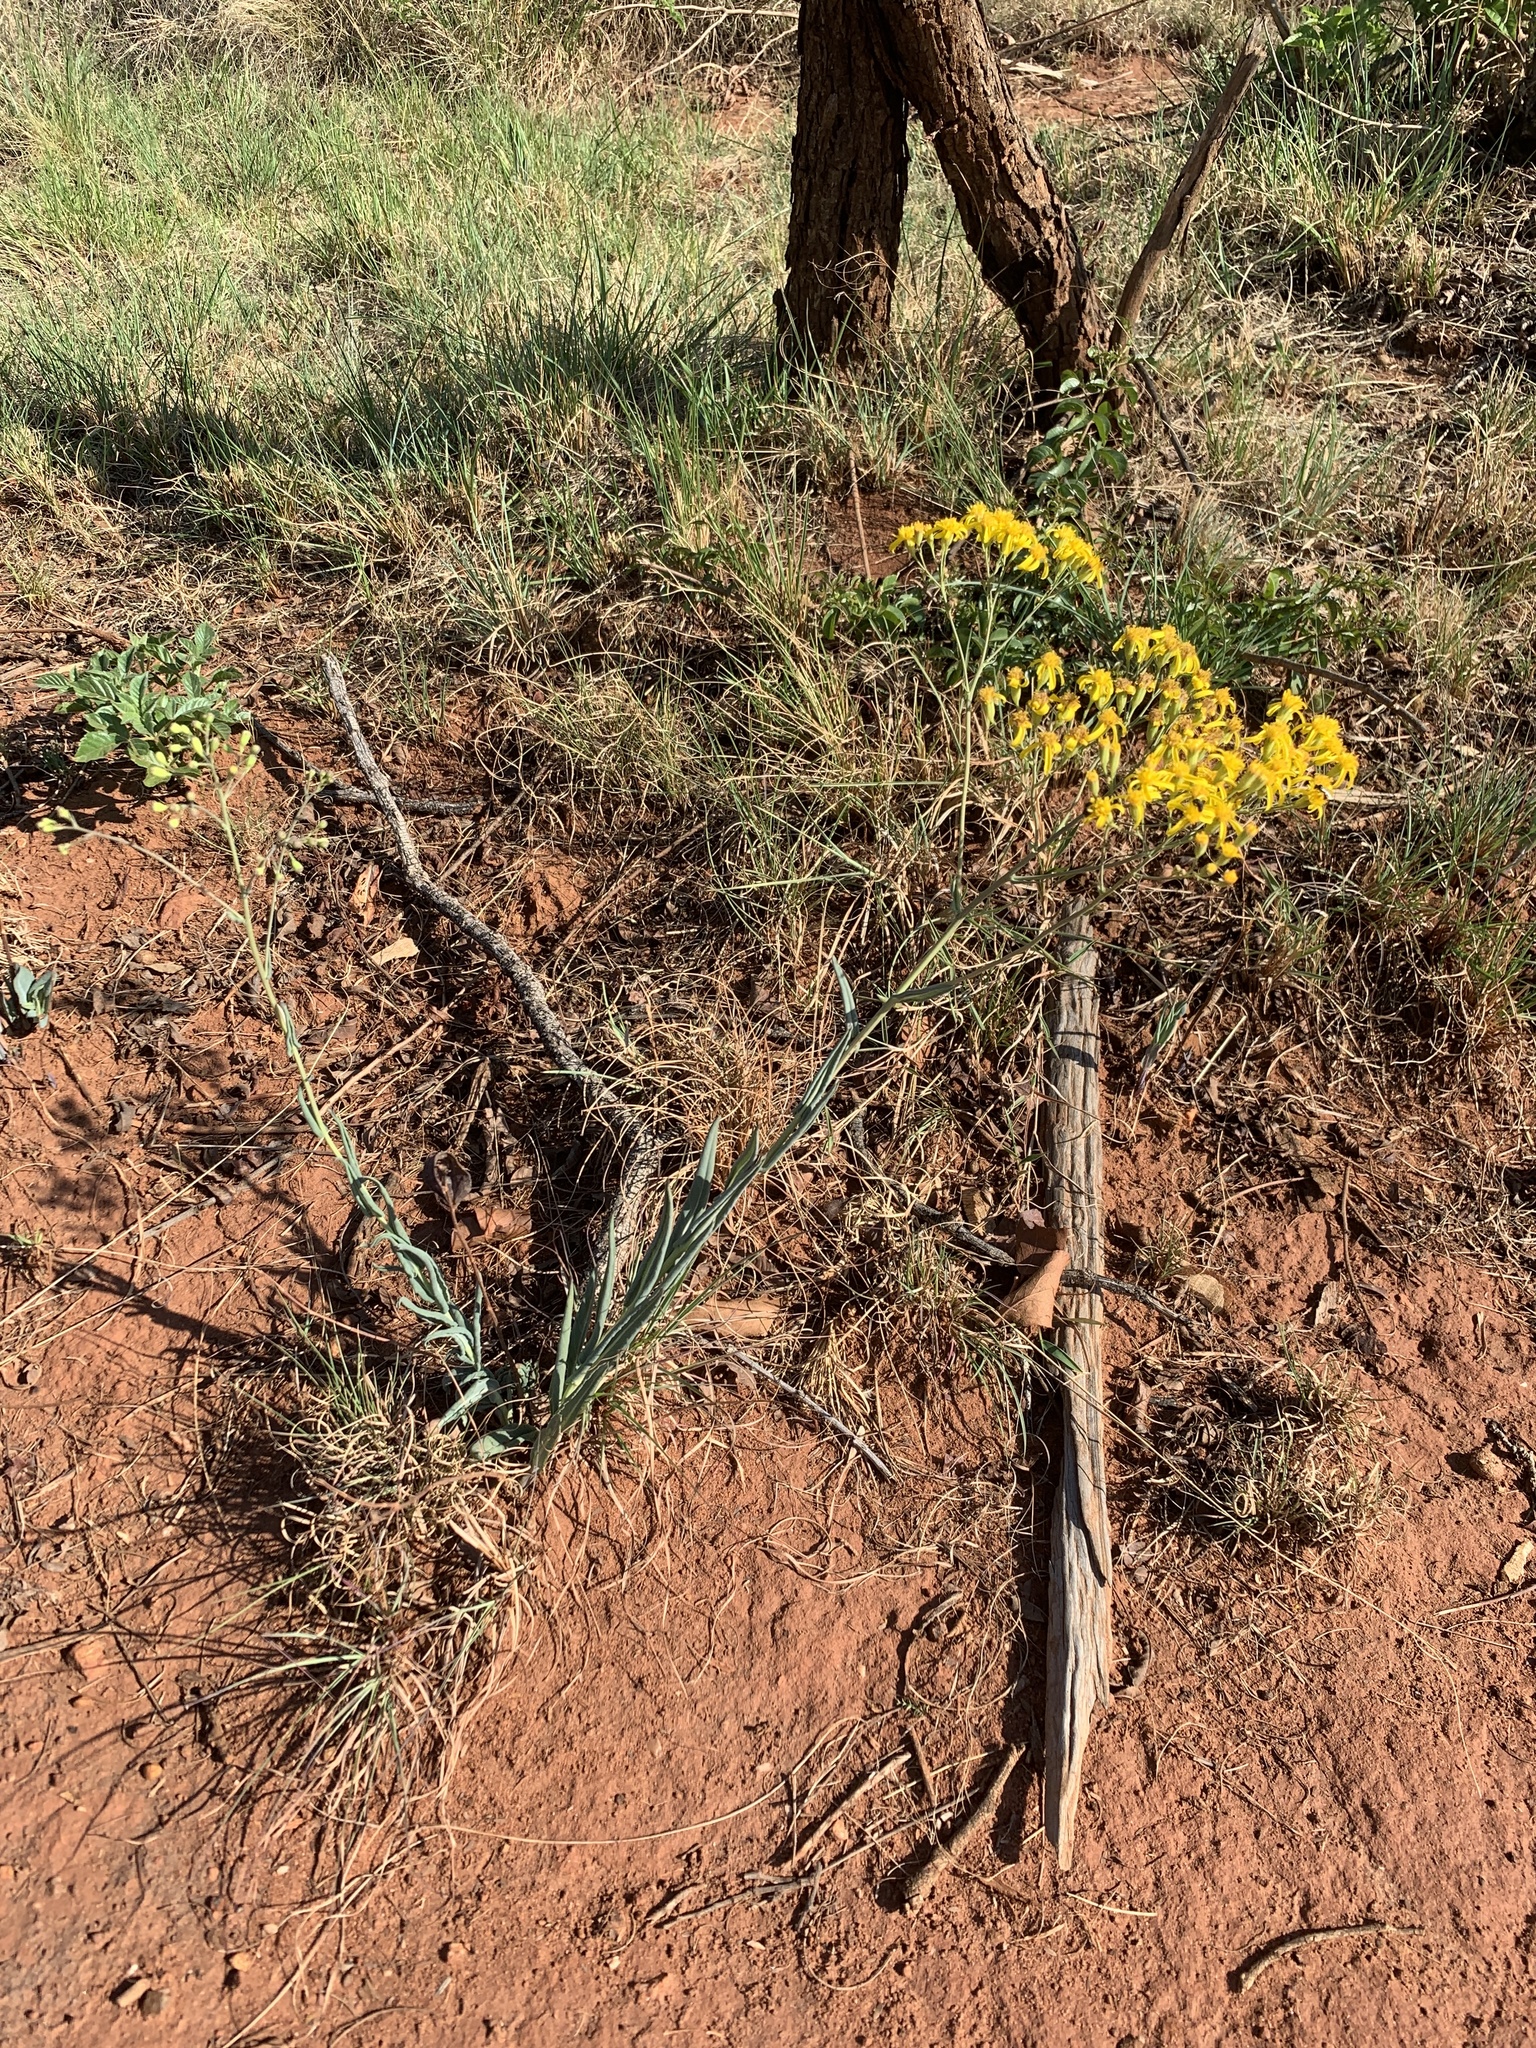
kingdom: Plantae
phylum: Tracheophyta
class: Magnoliopsida
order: Asterales
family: Asteraceae
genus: Senecio
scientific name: Senecio venosus
